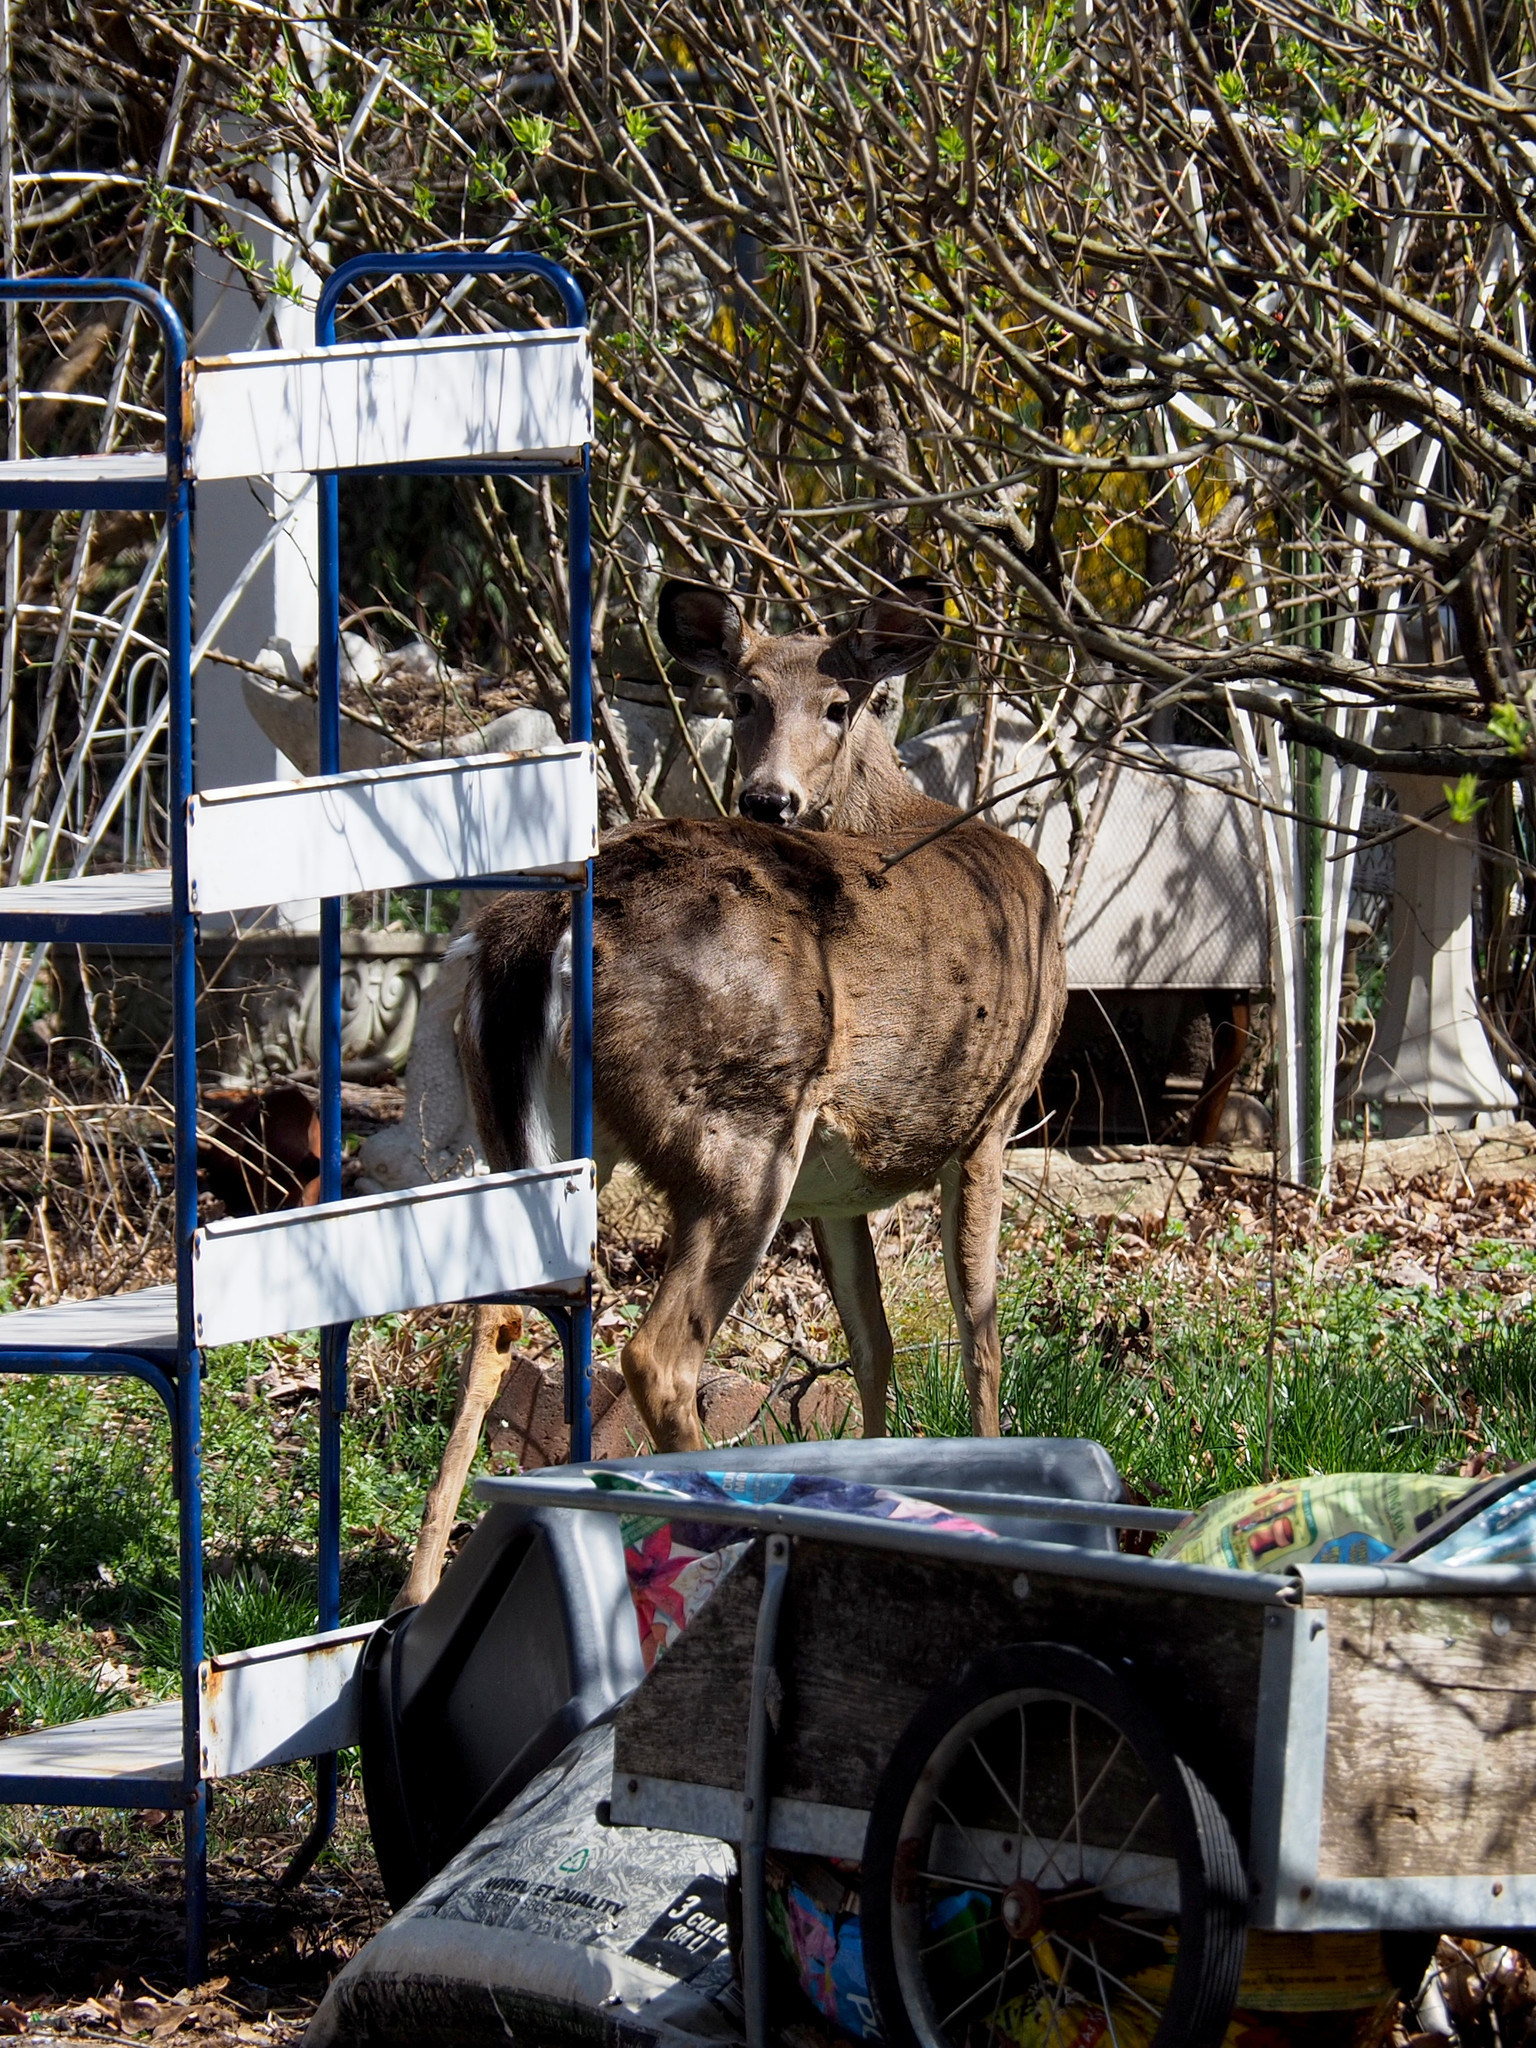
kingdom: Animalia
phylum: Chordata
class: Mammalia
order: Artiodactyla
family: Cervidae
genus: Odocoileus
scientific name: Odocoileus virginianus
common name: White-tailed deer
